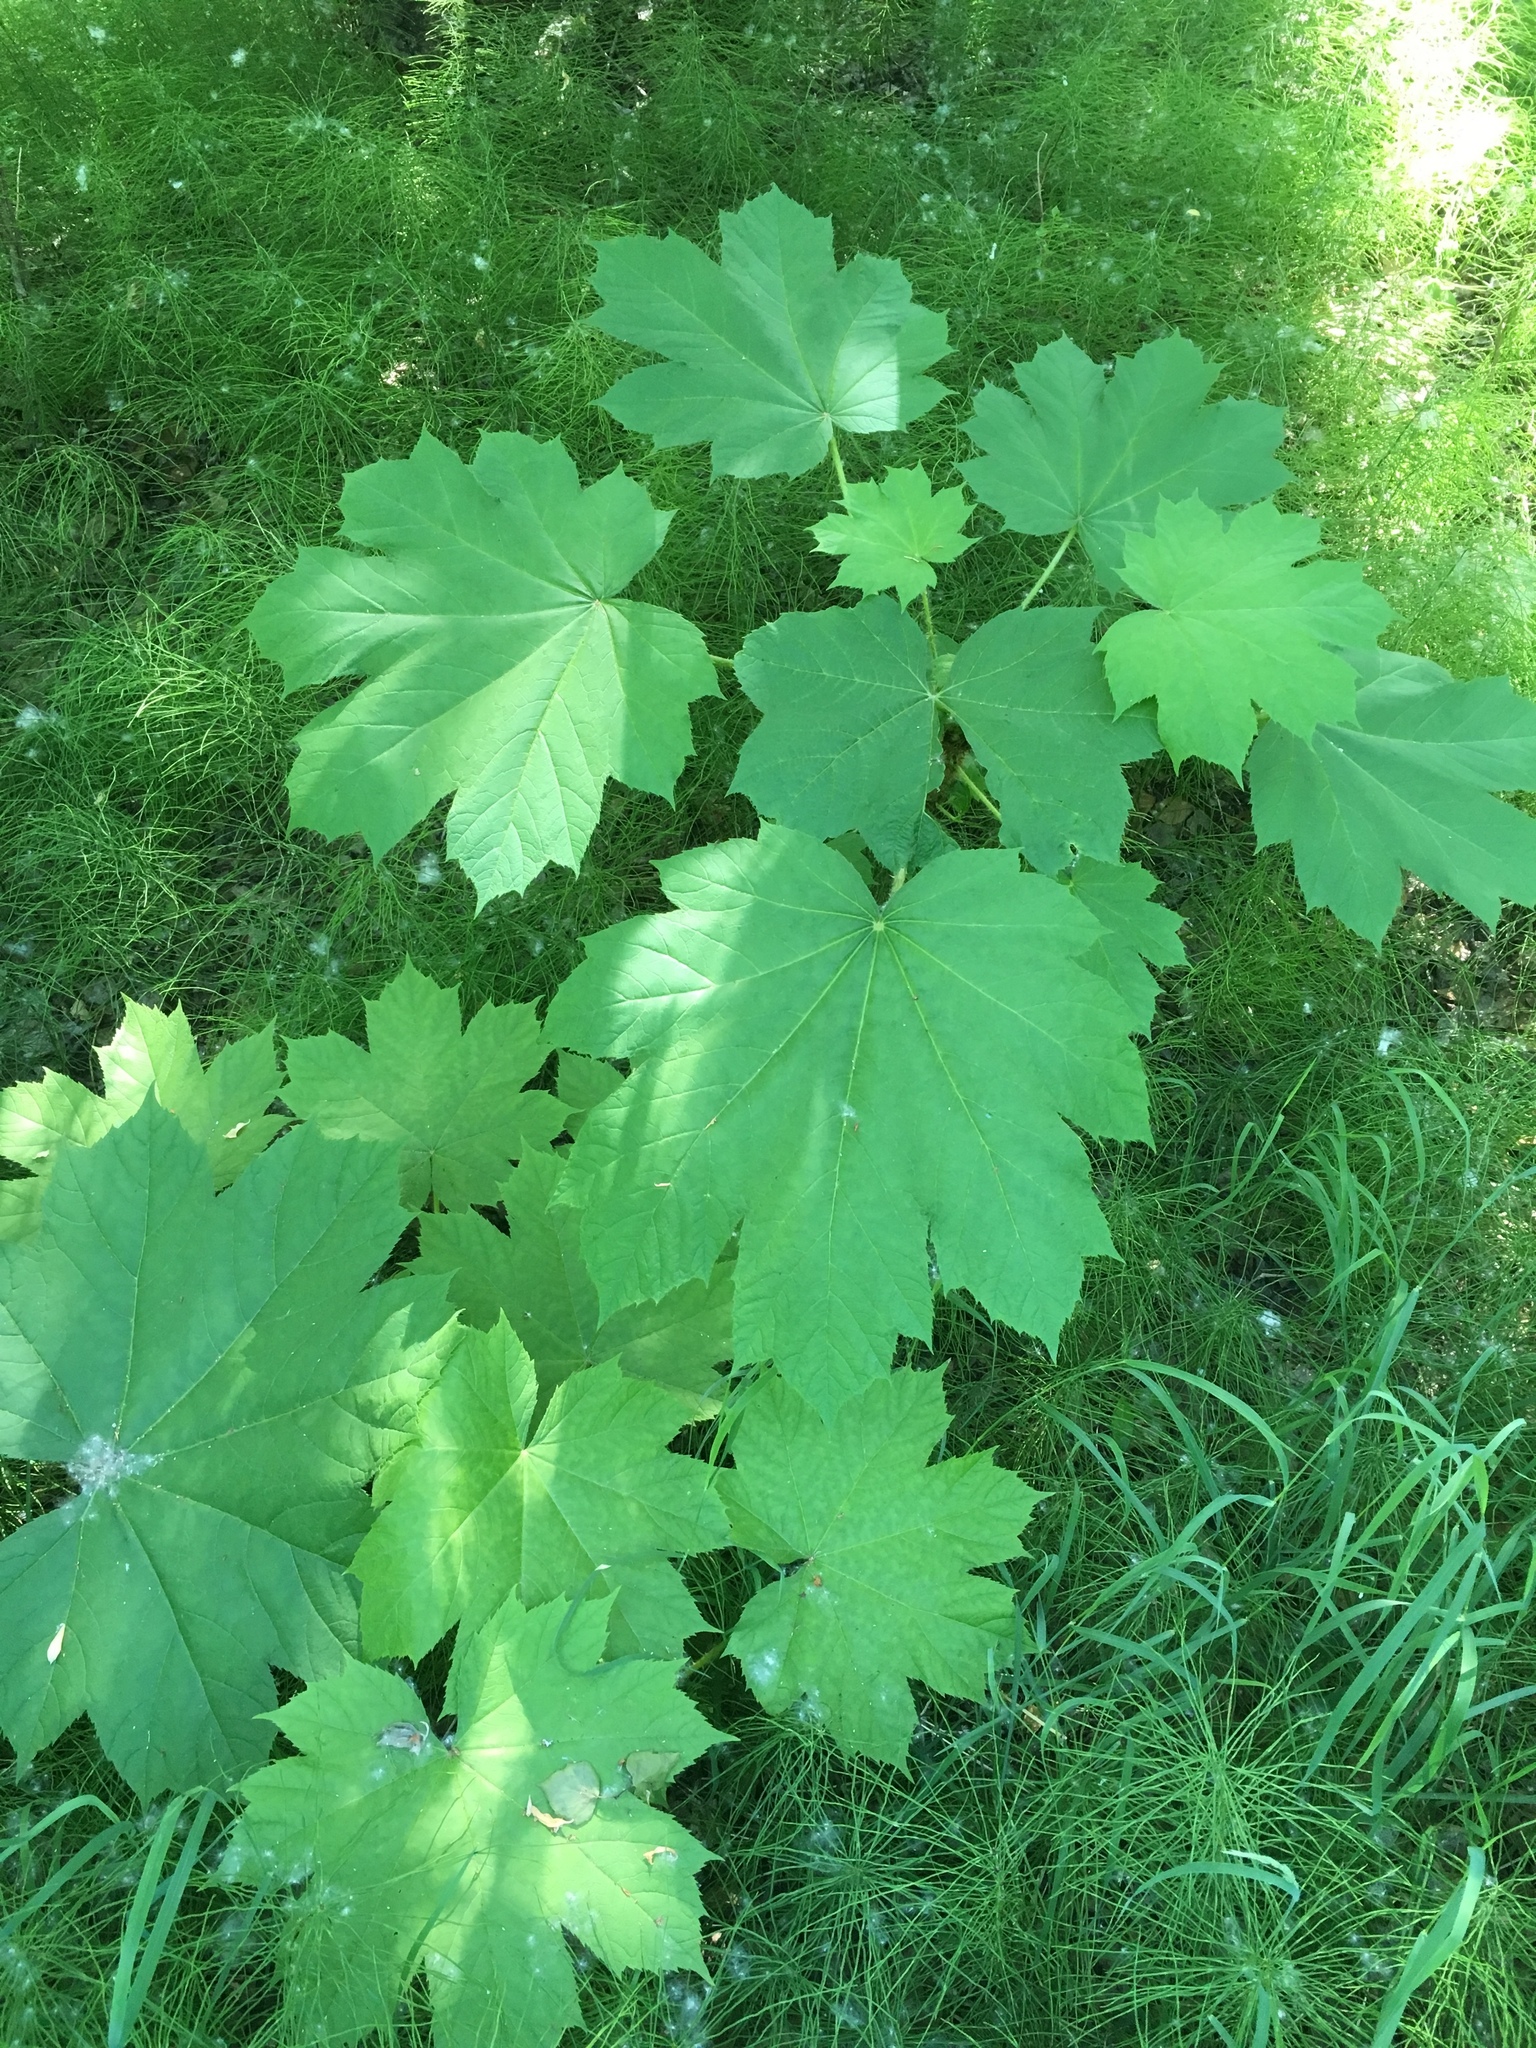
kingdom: Plantae
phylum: Tracheophyta
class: Magnoliopsida
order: Apiales
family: Araliaceae
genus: Oplopanax
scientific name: Oplopanax horridus
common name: Devil's walking-stick
